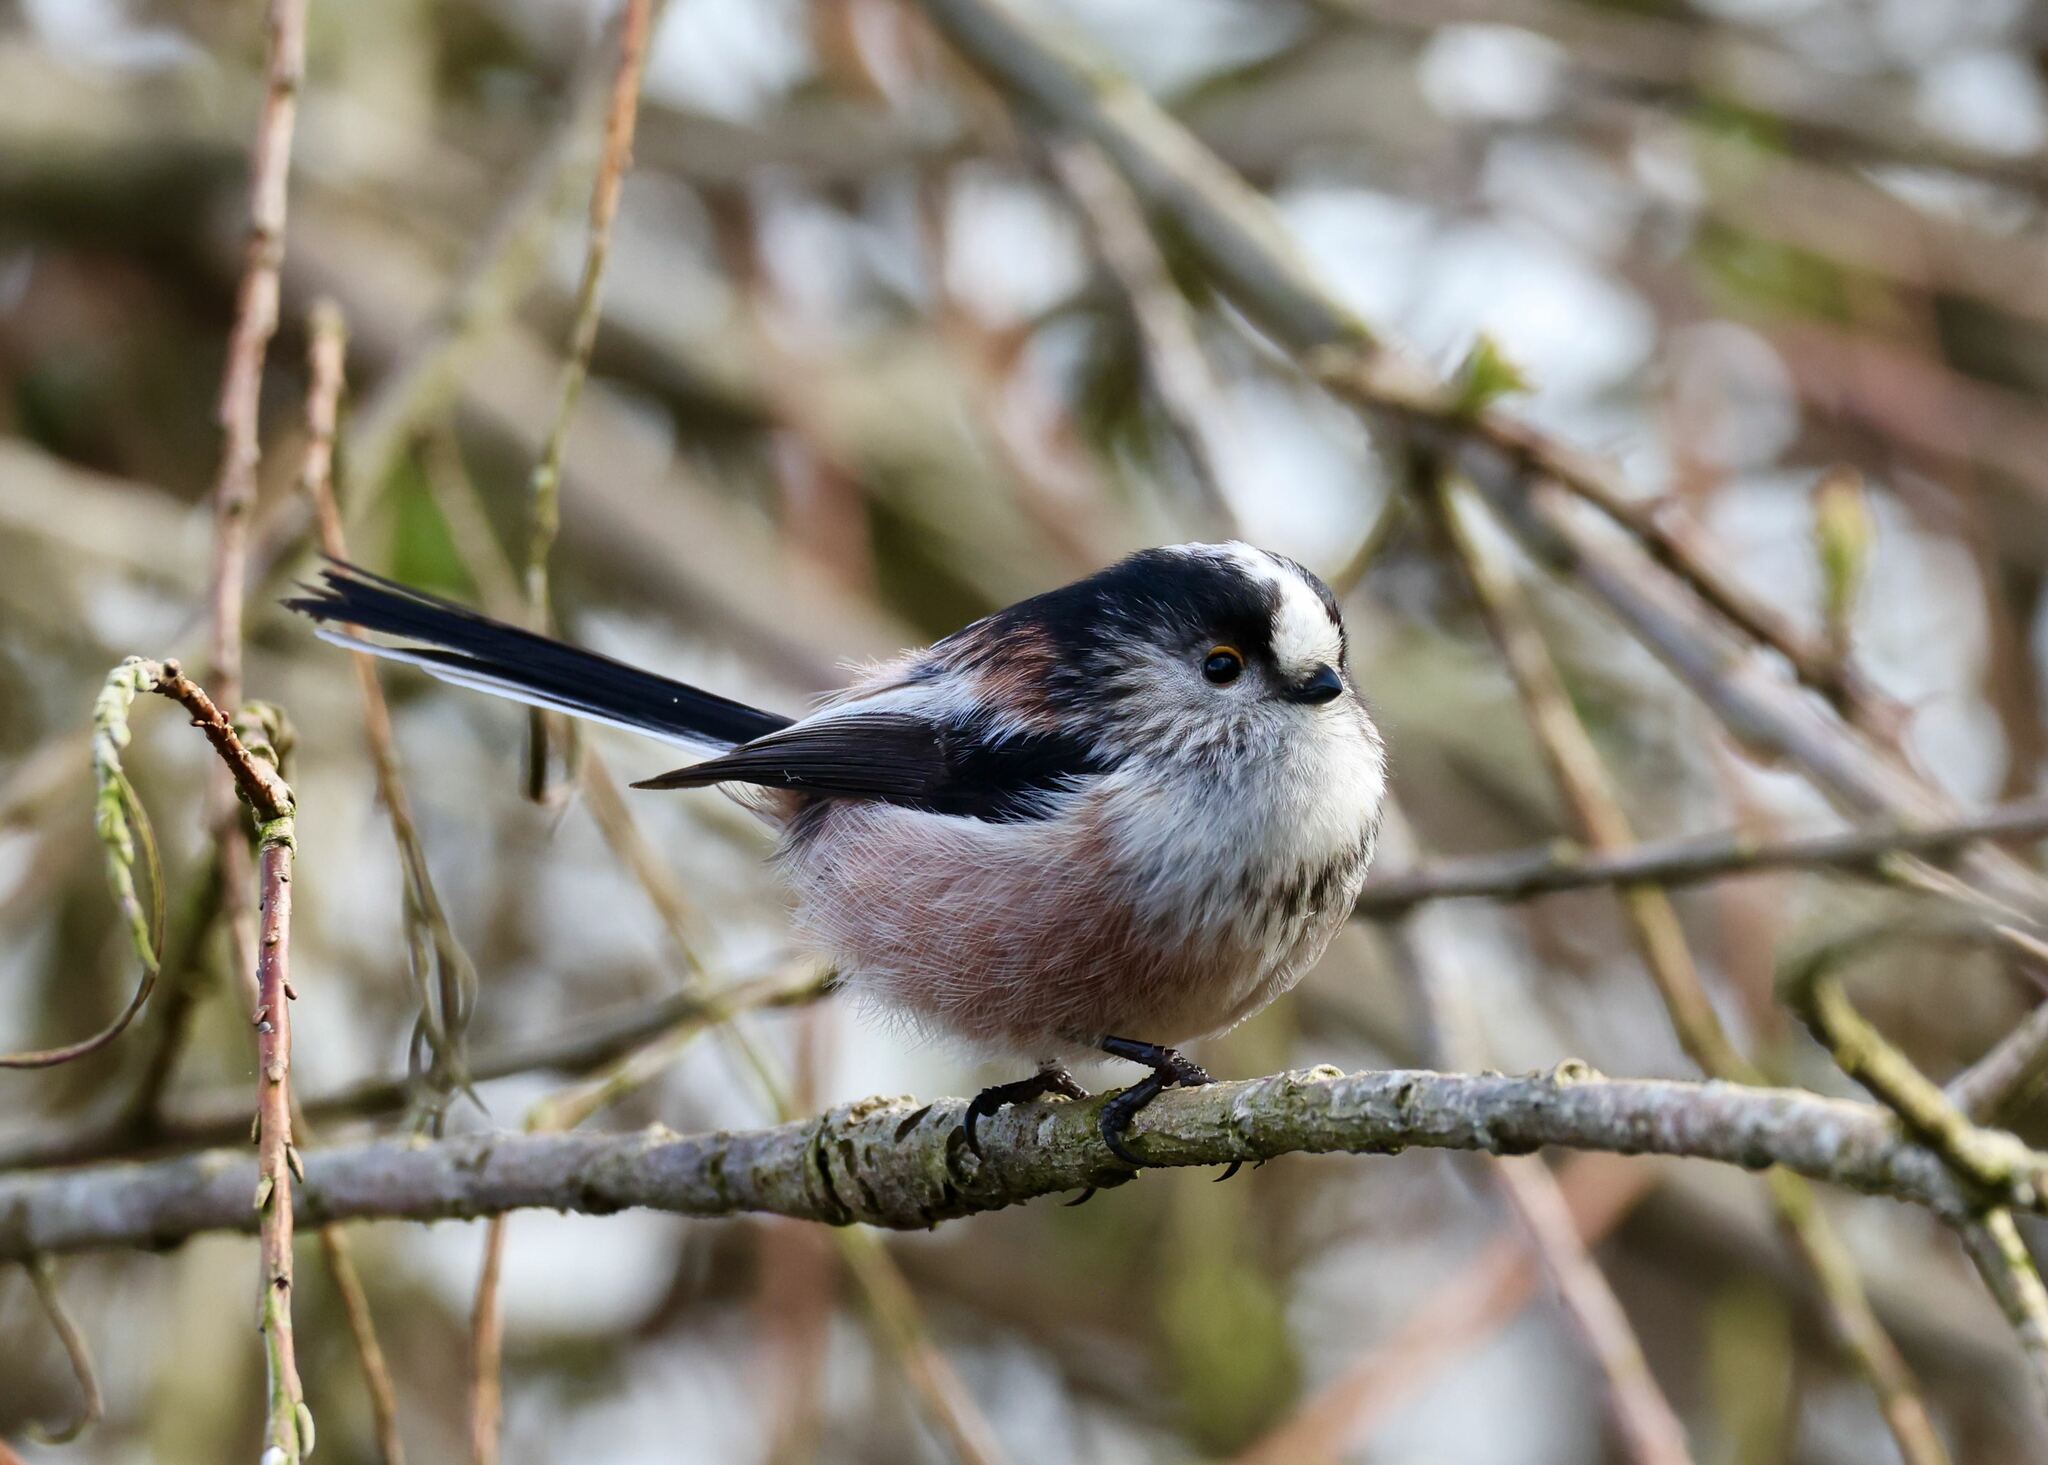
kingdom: Animalia
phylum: Chordata
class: Aves
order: Passeriformes
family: Aegithalidae
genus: Aegithalos
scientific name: Aegithalos caudatus
